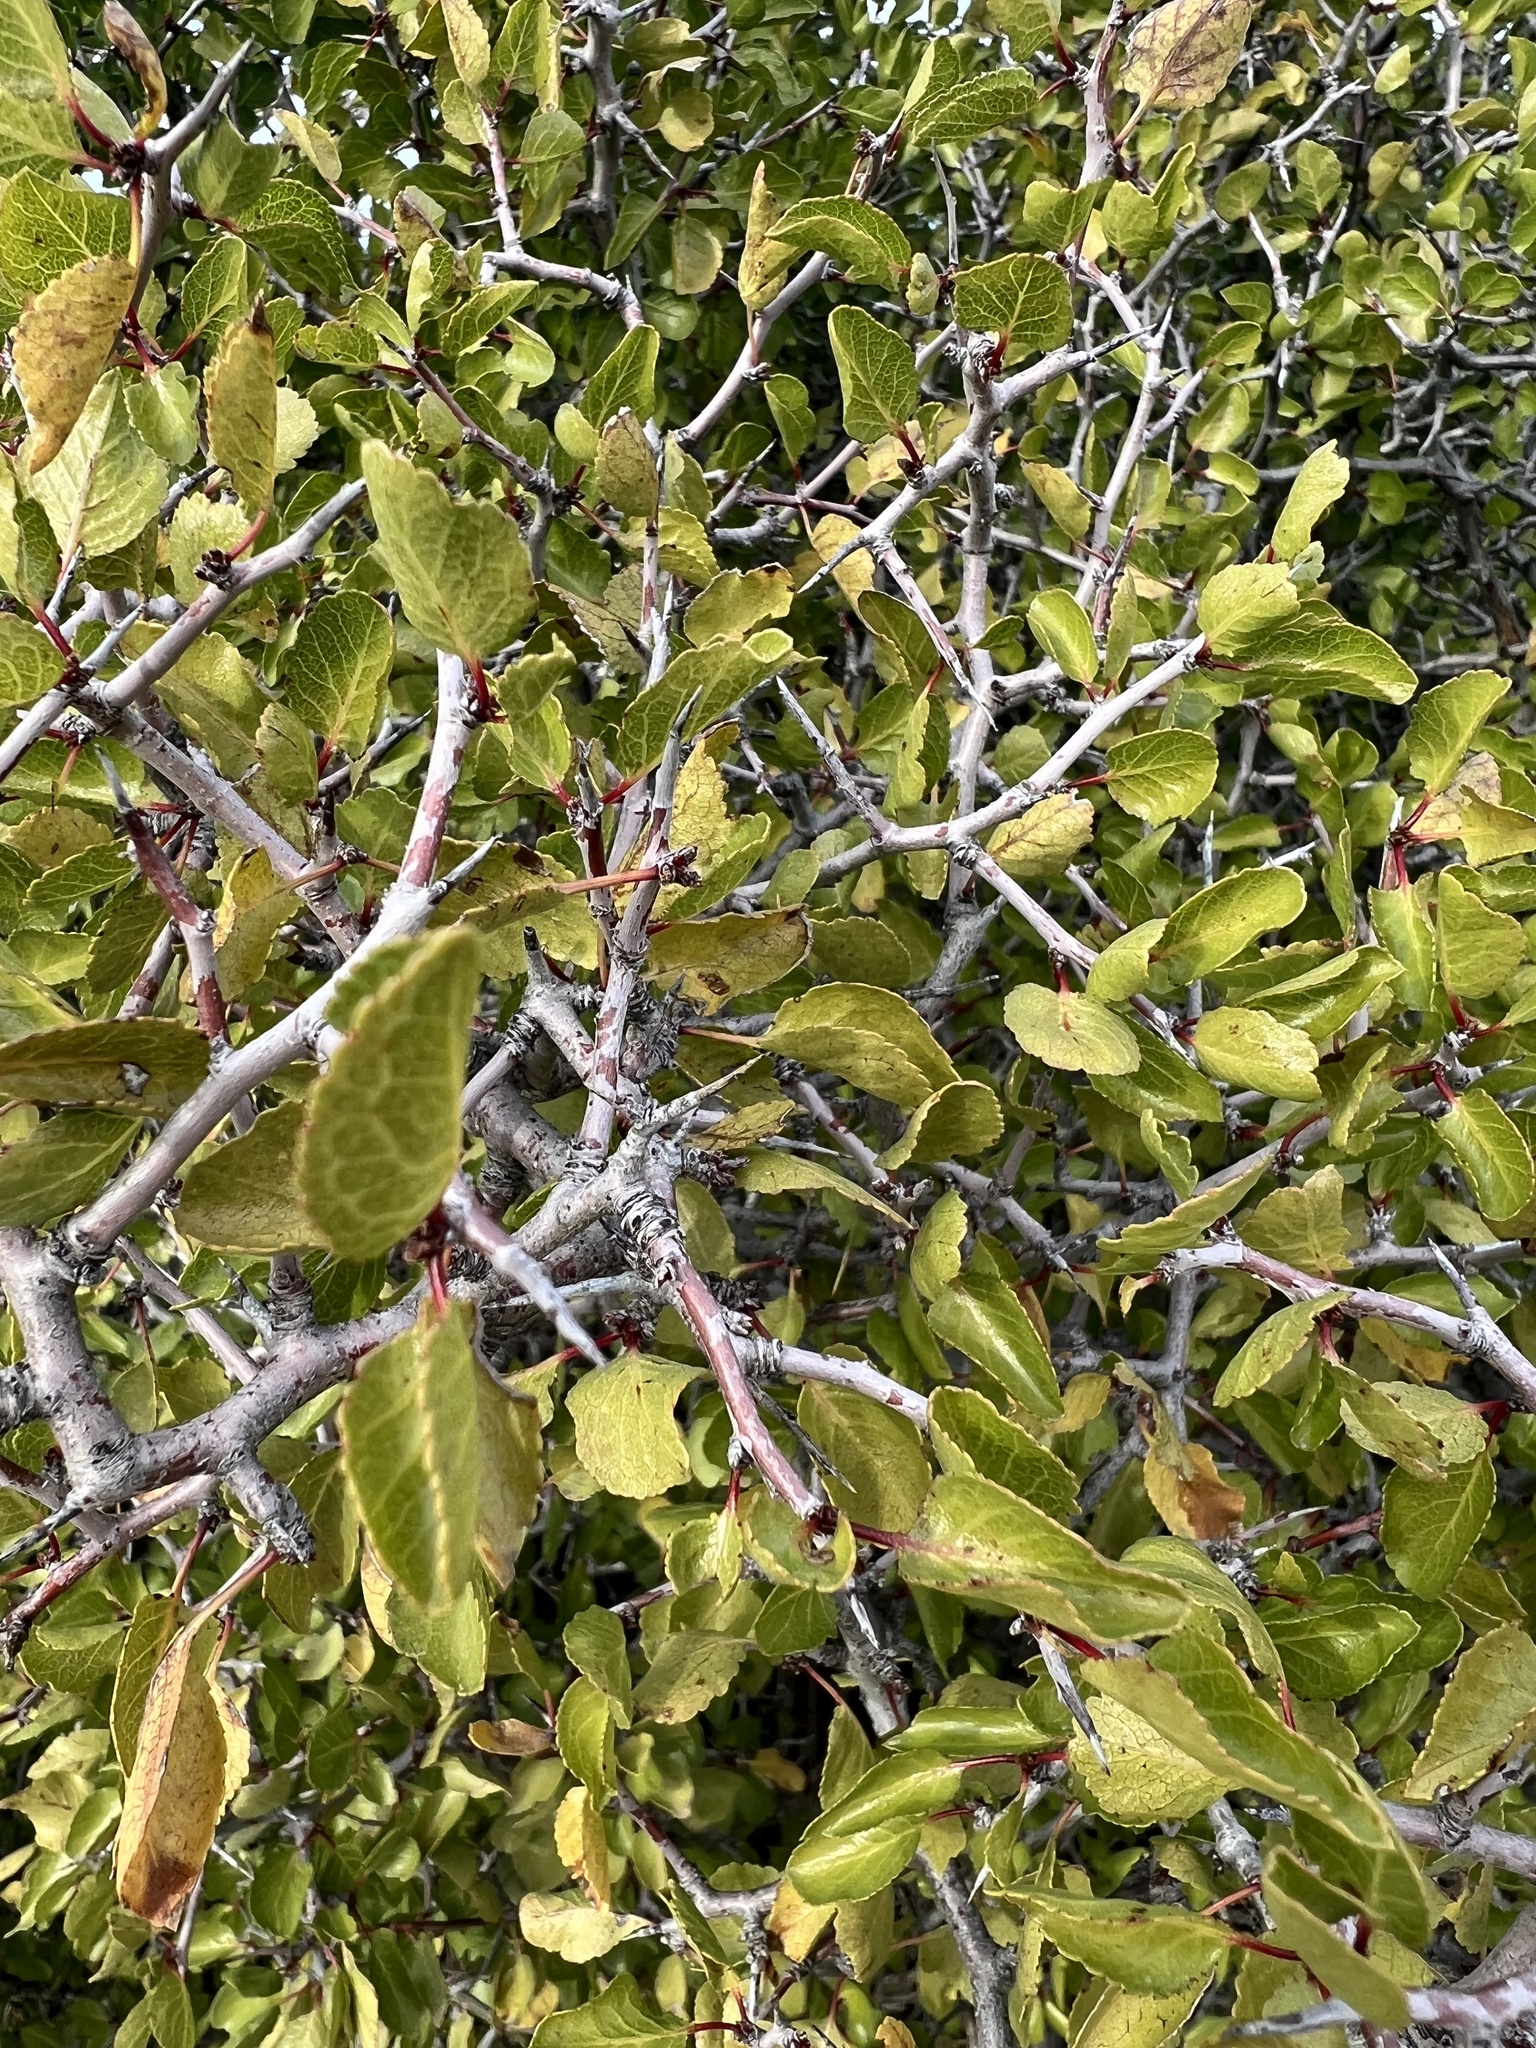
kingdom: Plantae
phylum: Tracheophyta
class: Magnoliopsida
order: Rosales
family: Rosaceae
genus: Prunus
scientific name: Prunus fremontii
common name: Desert apricot
